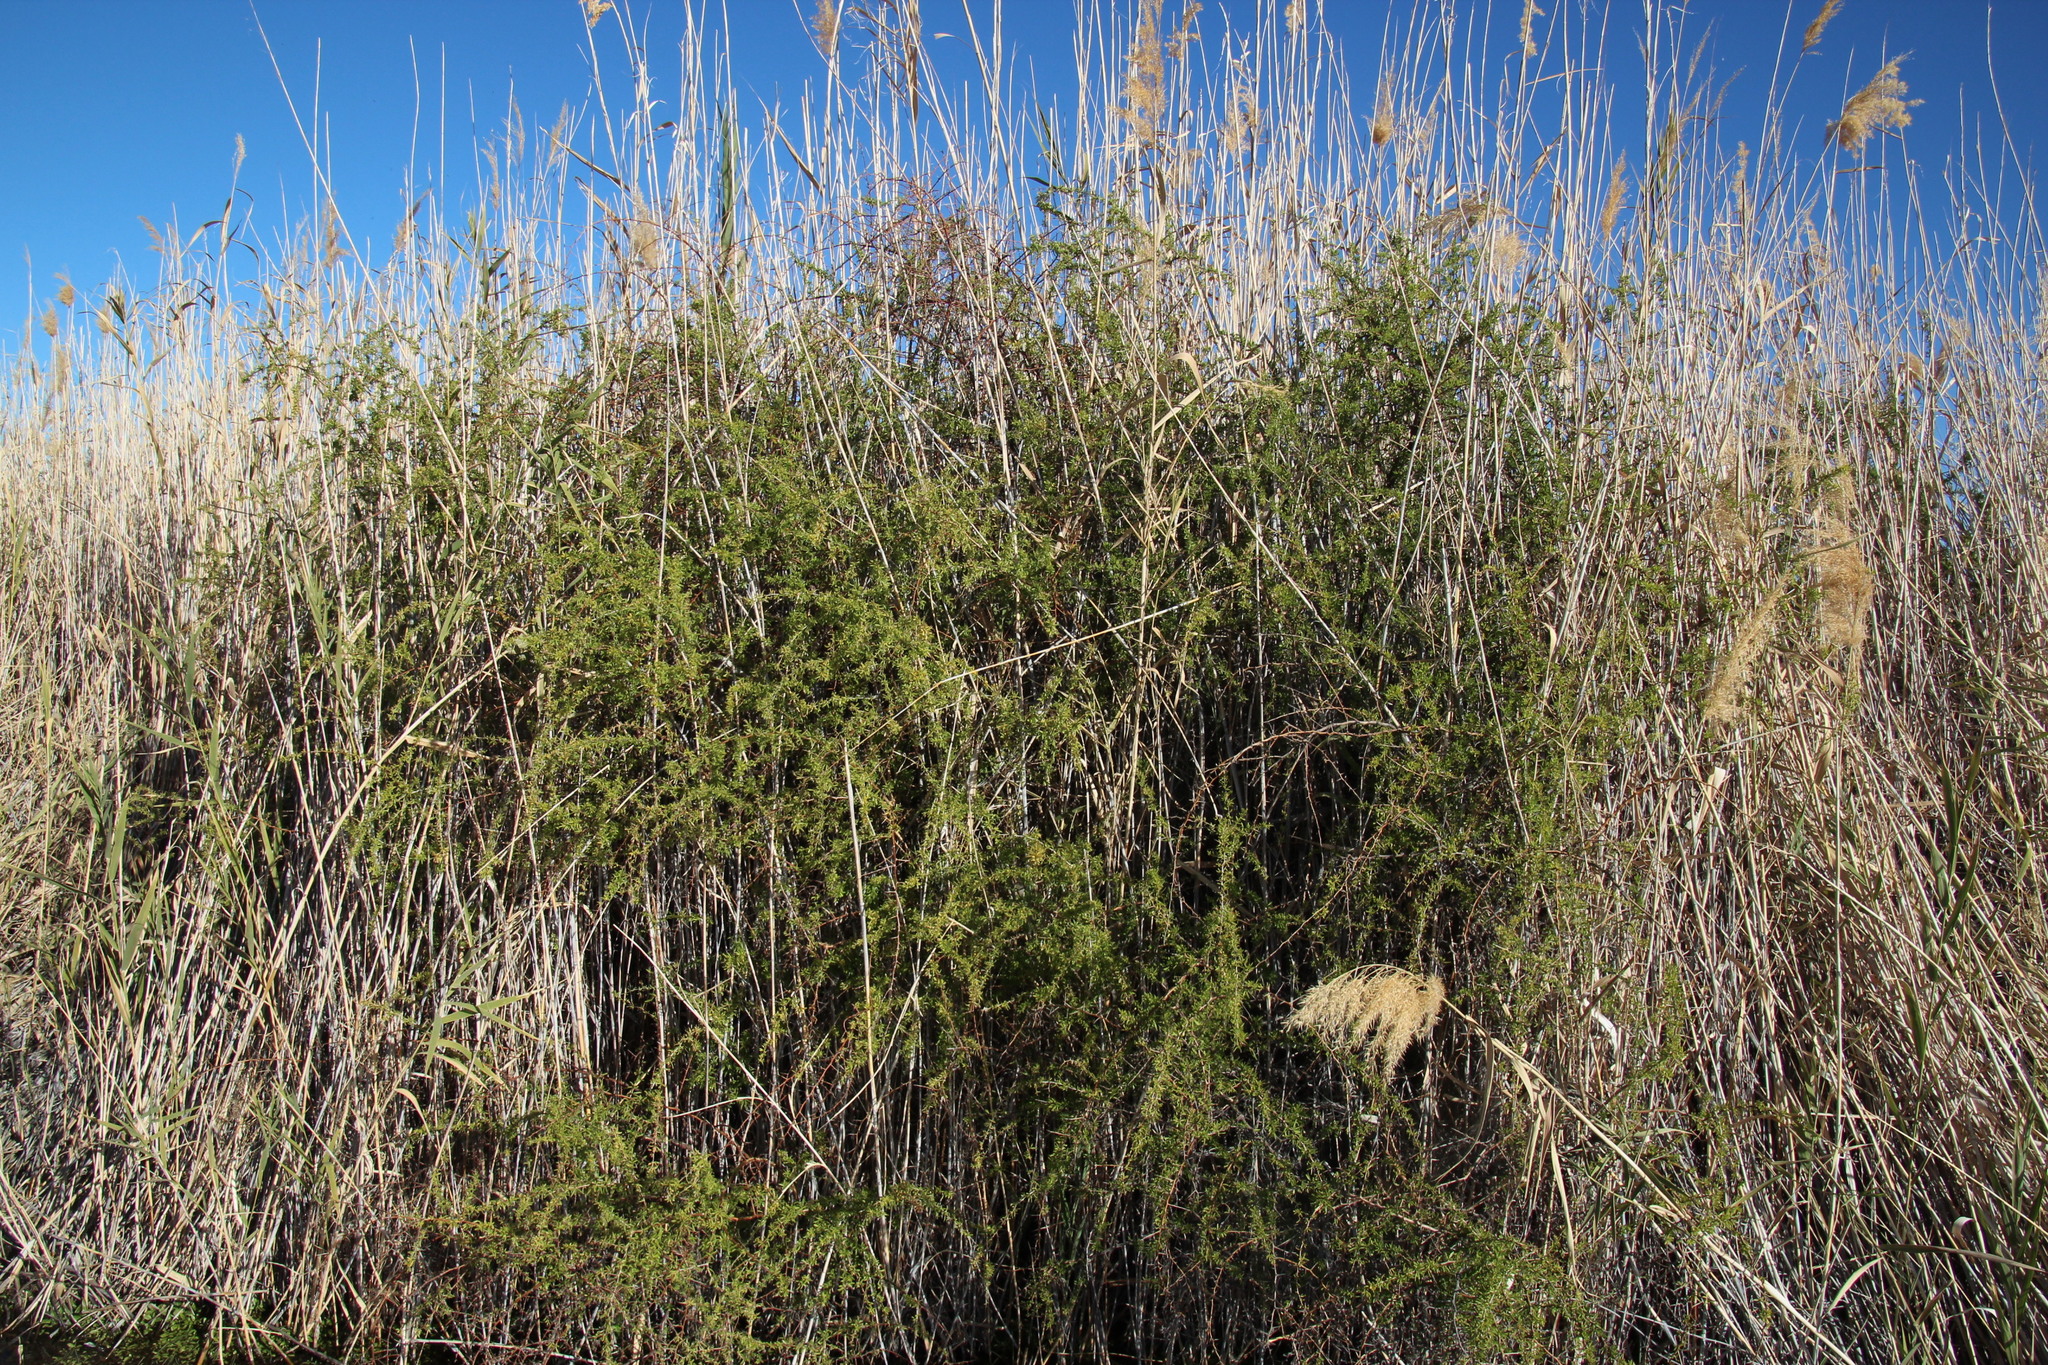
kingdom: Plantae
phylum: Tracheophyta
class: Magnoliopsida
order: Solanales
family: Solanaceae
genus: Lycium
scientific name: Lycium bosciifolium
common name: Limpopo honey-thorn
